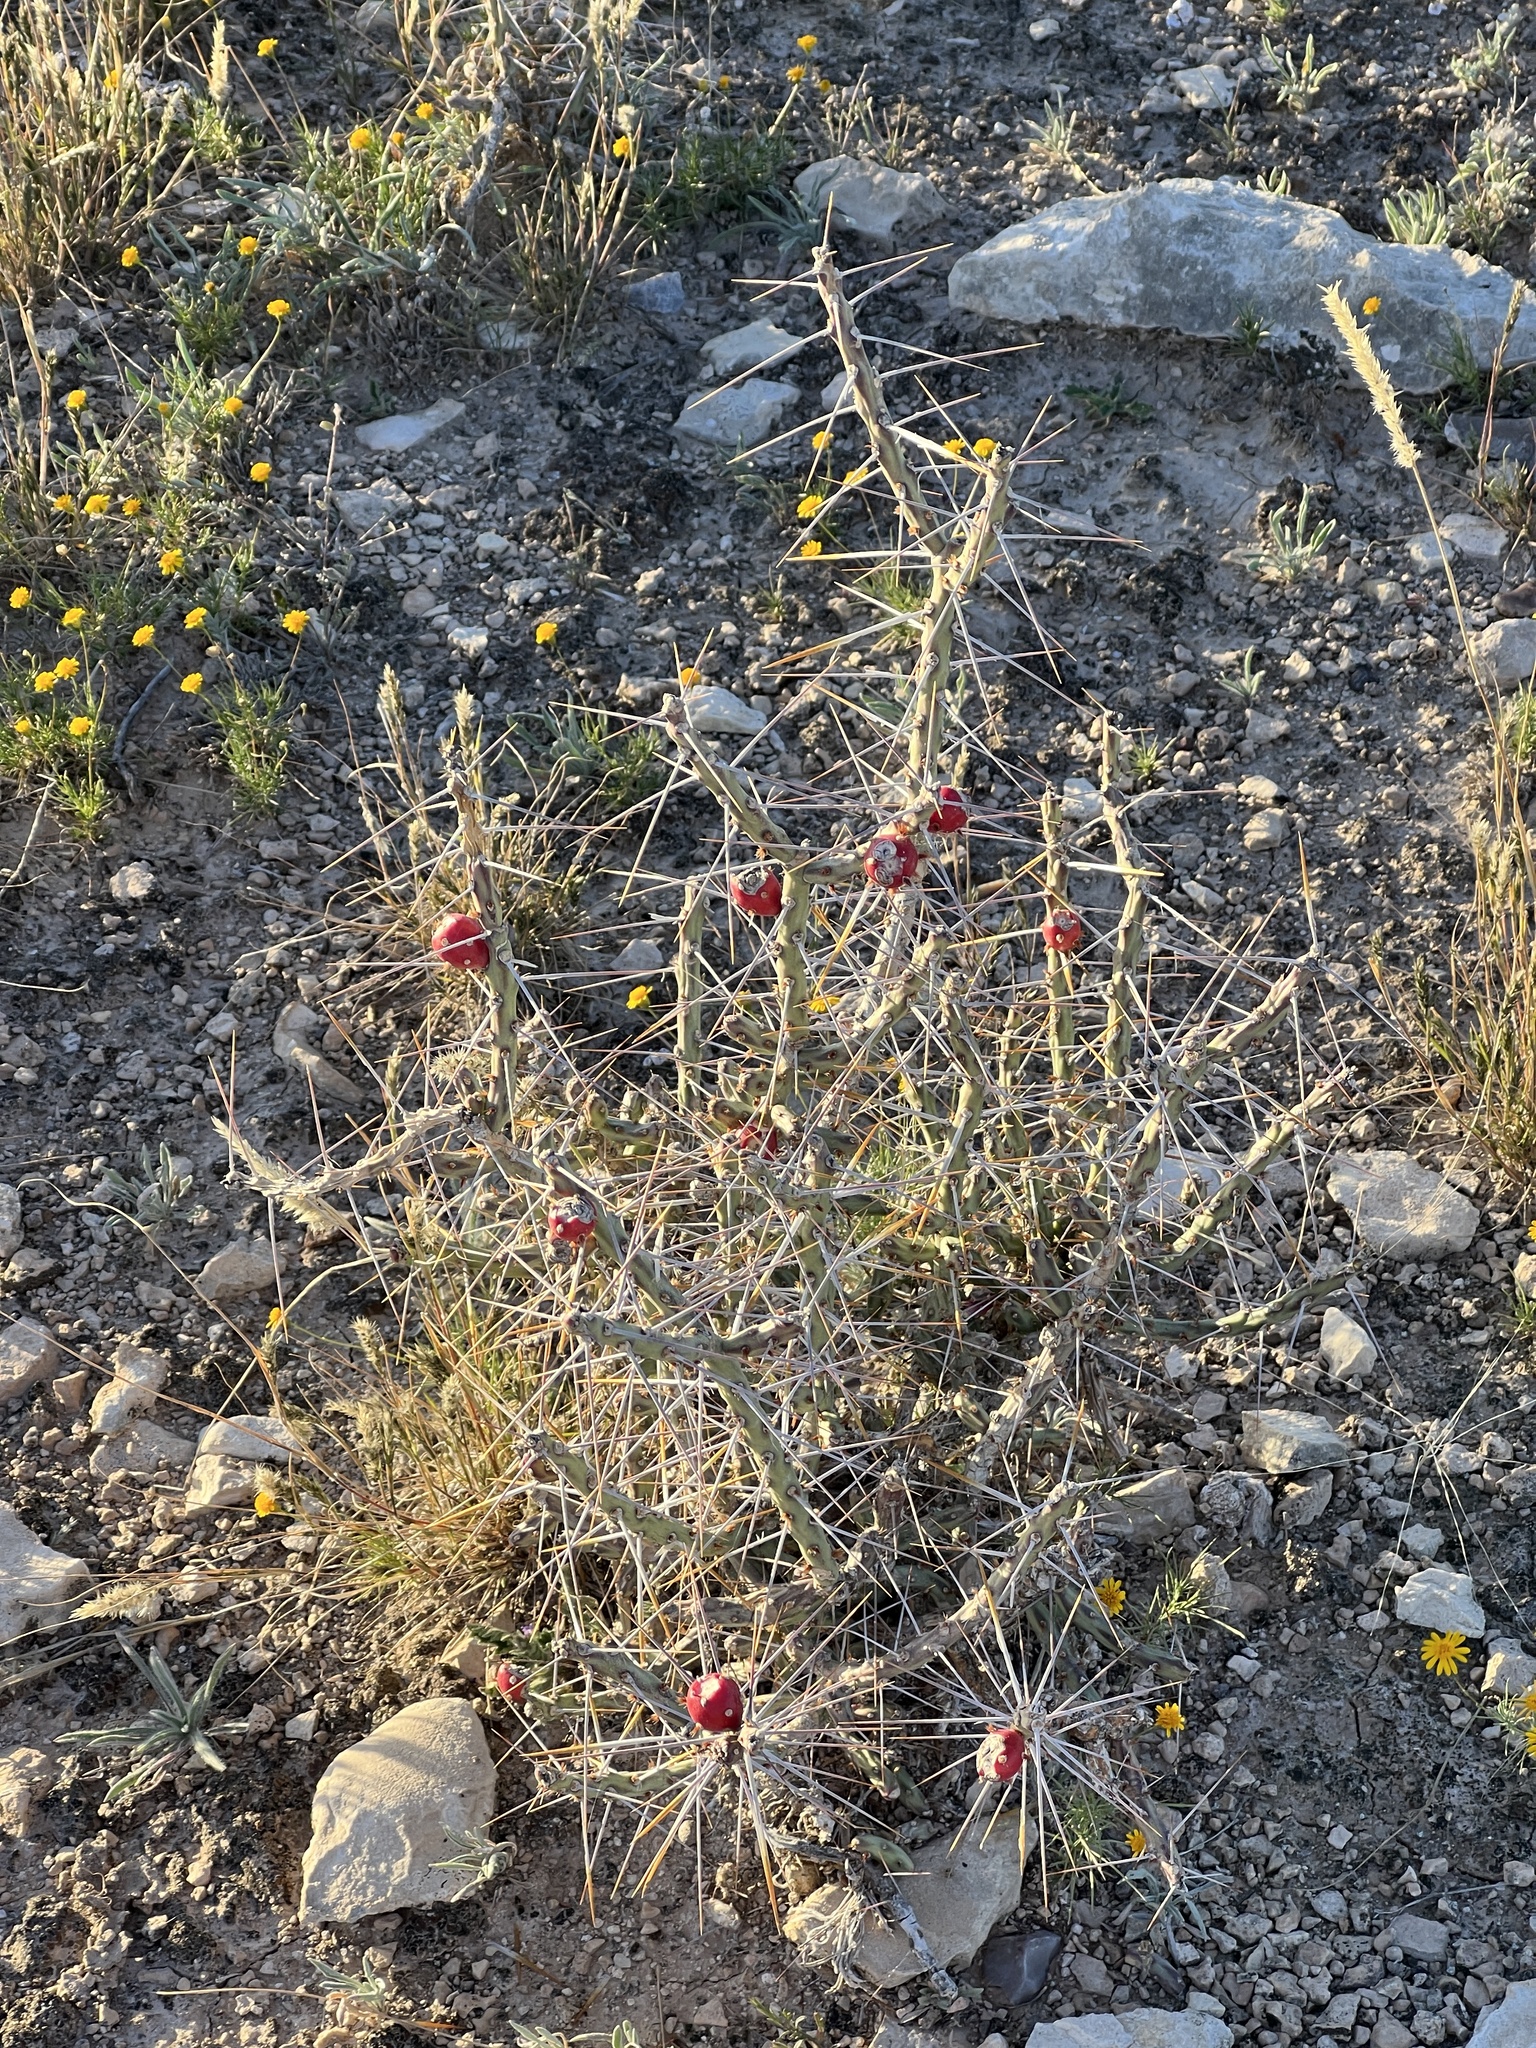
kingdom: Plantae
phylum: Tracheophyta
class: Magnoliopsida
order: Caryophyllales
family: Cactaceae
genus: Cylindropuntia
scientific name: Cylindropuntia leptocaulis
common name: Christmas cactus
